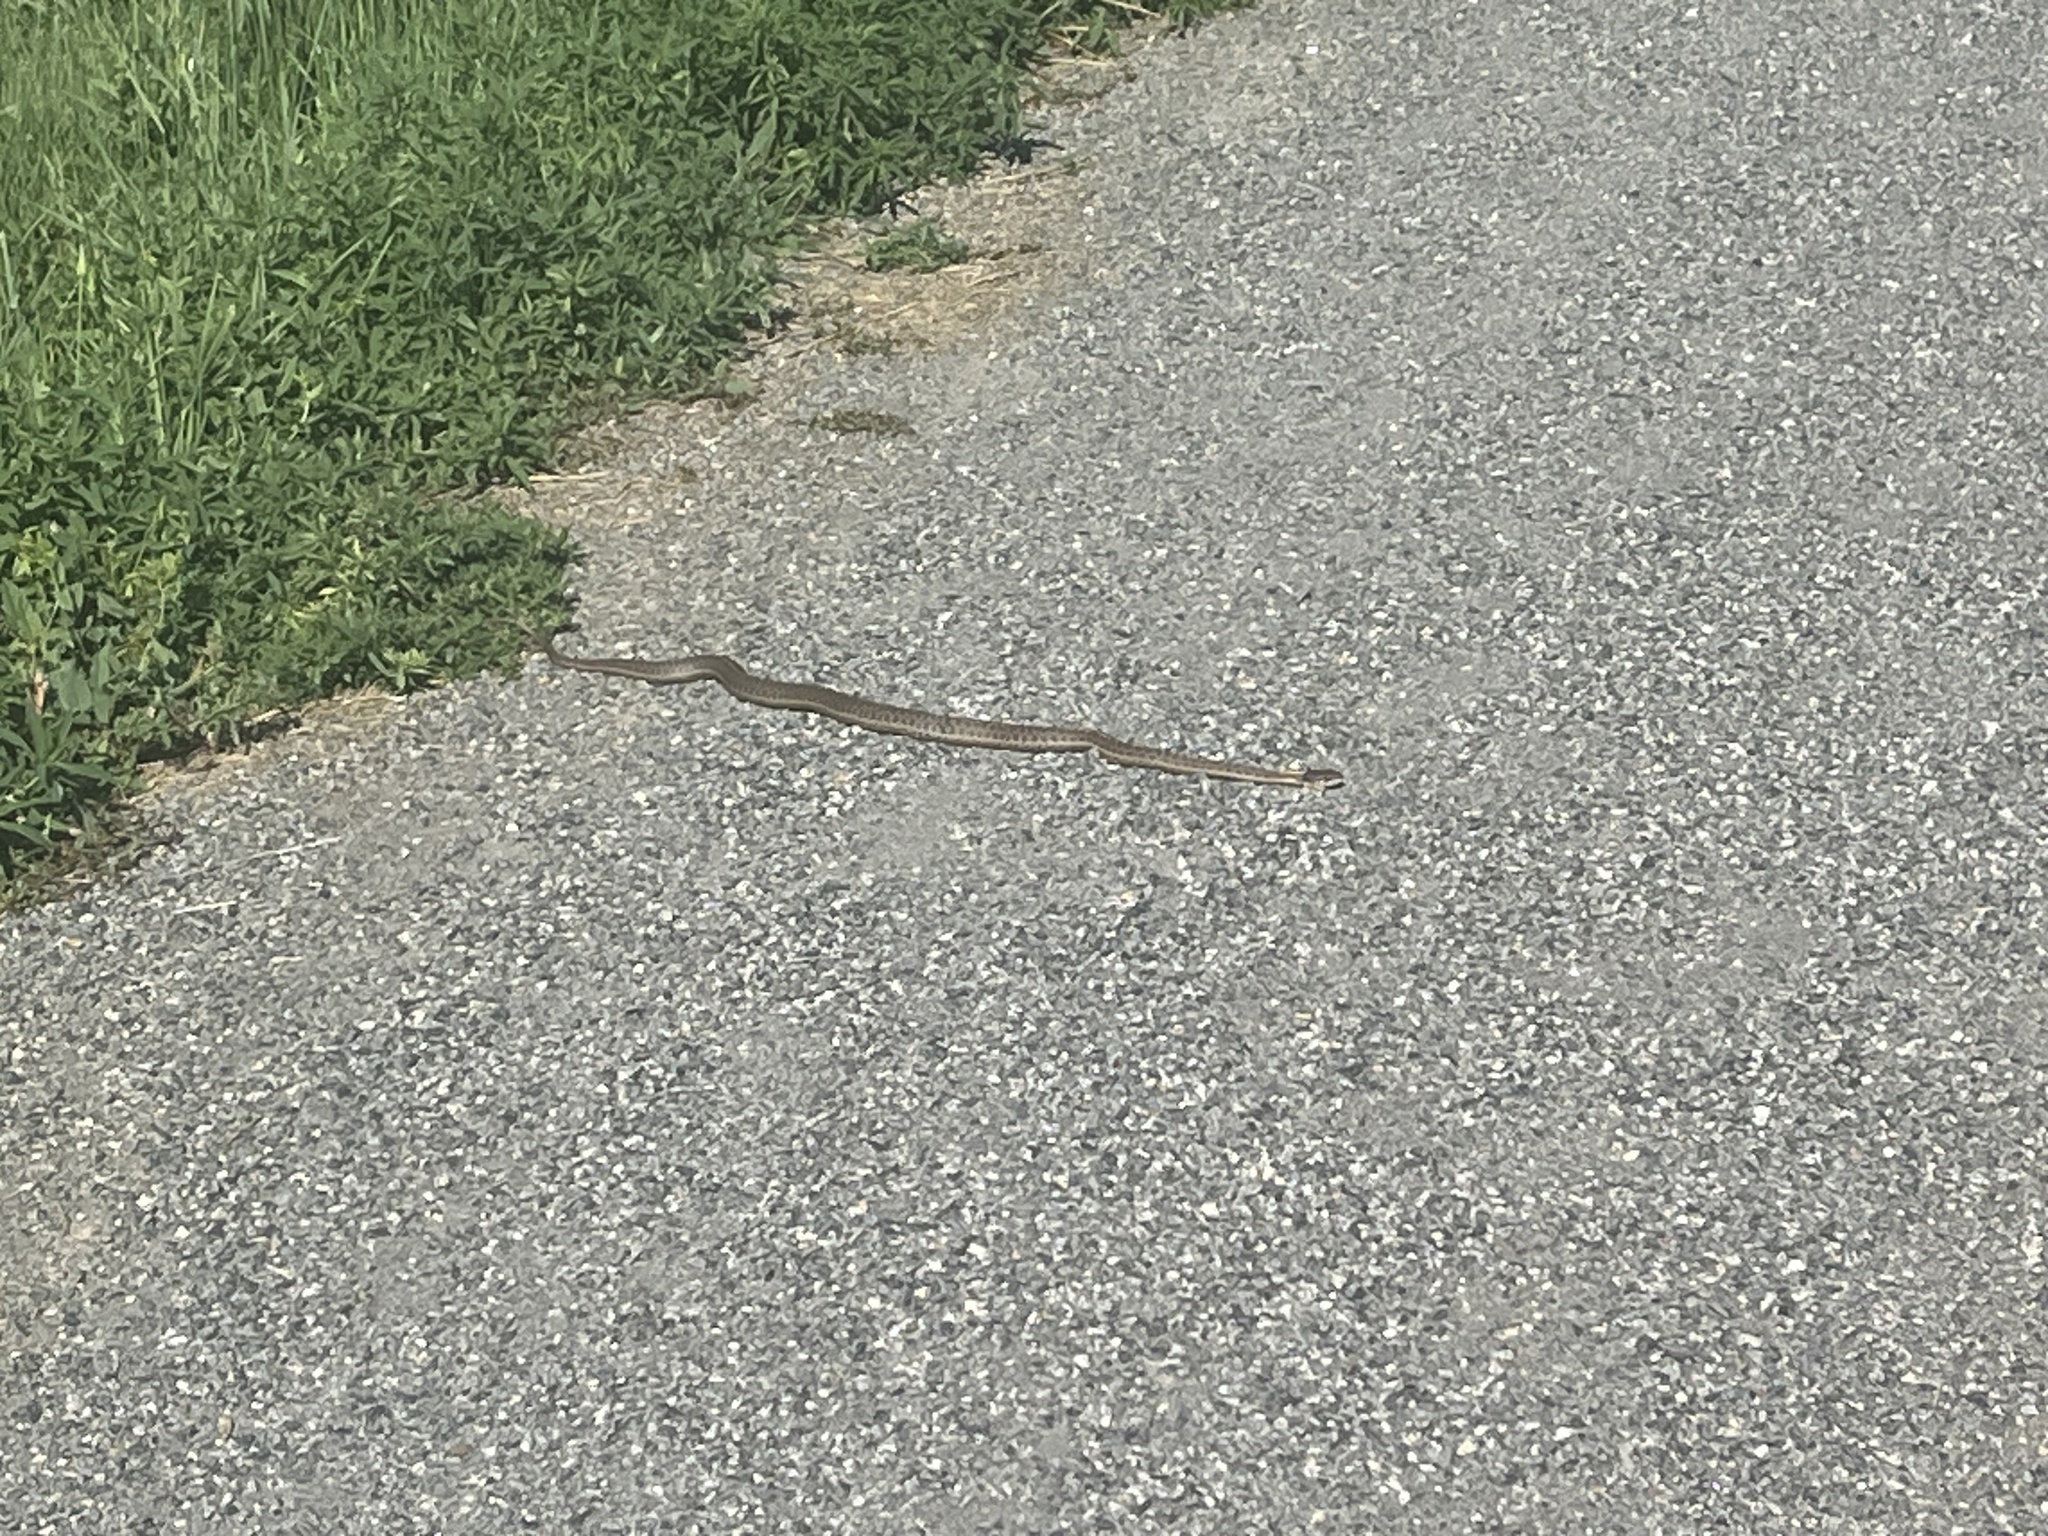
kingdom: Animalia
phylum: Chordata
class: Squamata
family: Colubridae
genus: Thamnophis
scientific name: Thamnophis elegans
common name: Western terrestrial garter snake
